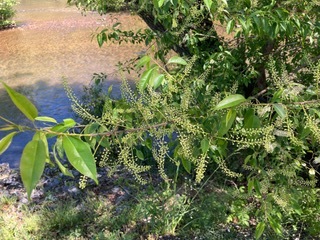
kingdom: Plantae
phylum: Tracheophyta
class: Magnoliopsida
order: Rosales
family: Rosaceae
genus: Prunus
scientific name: Prunus serotina
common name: Black cherry
